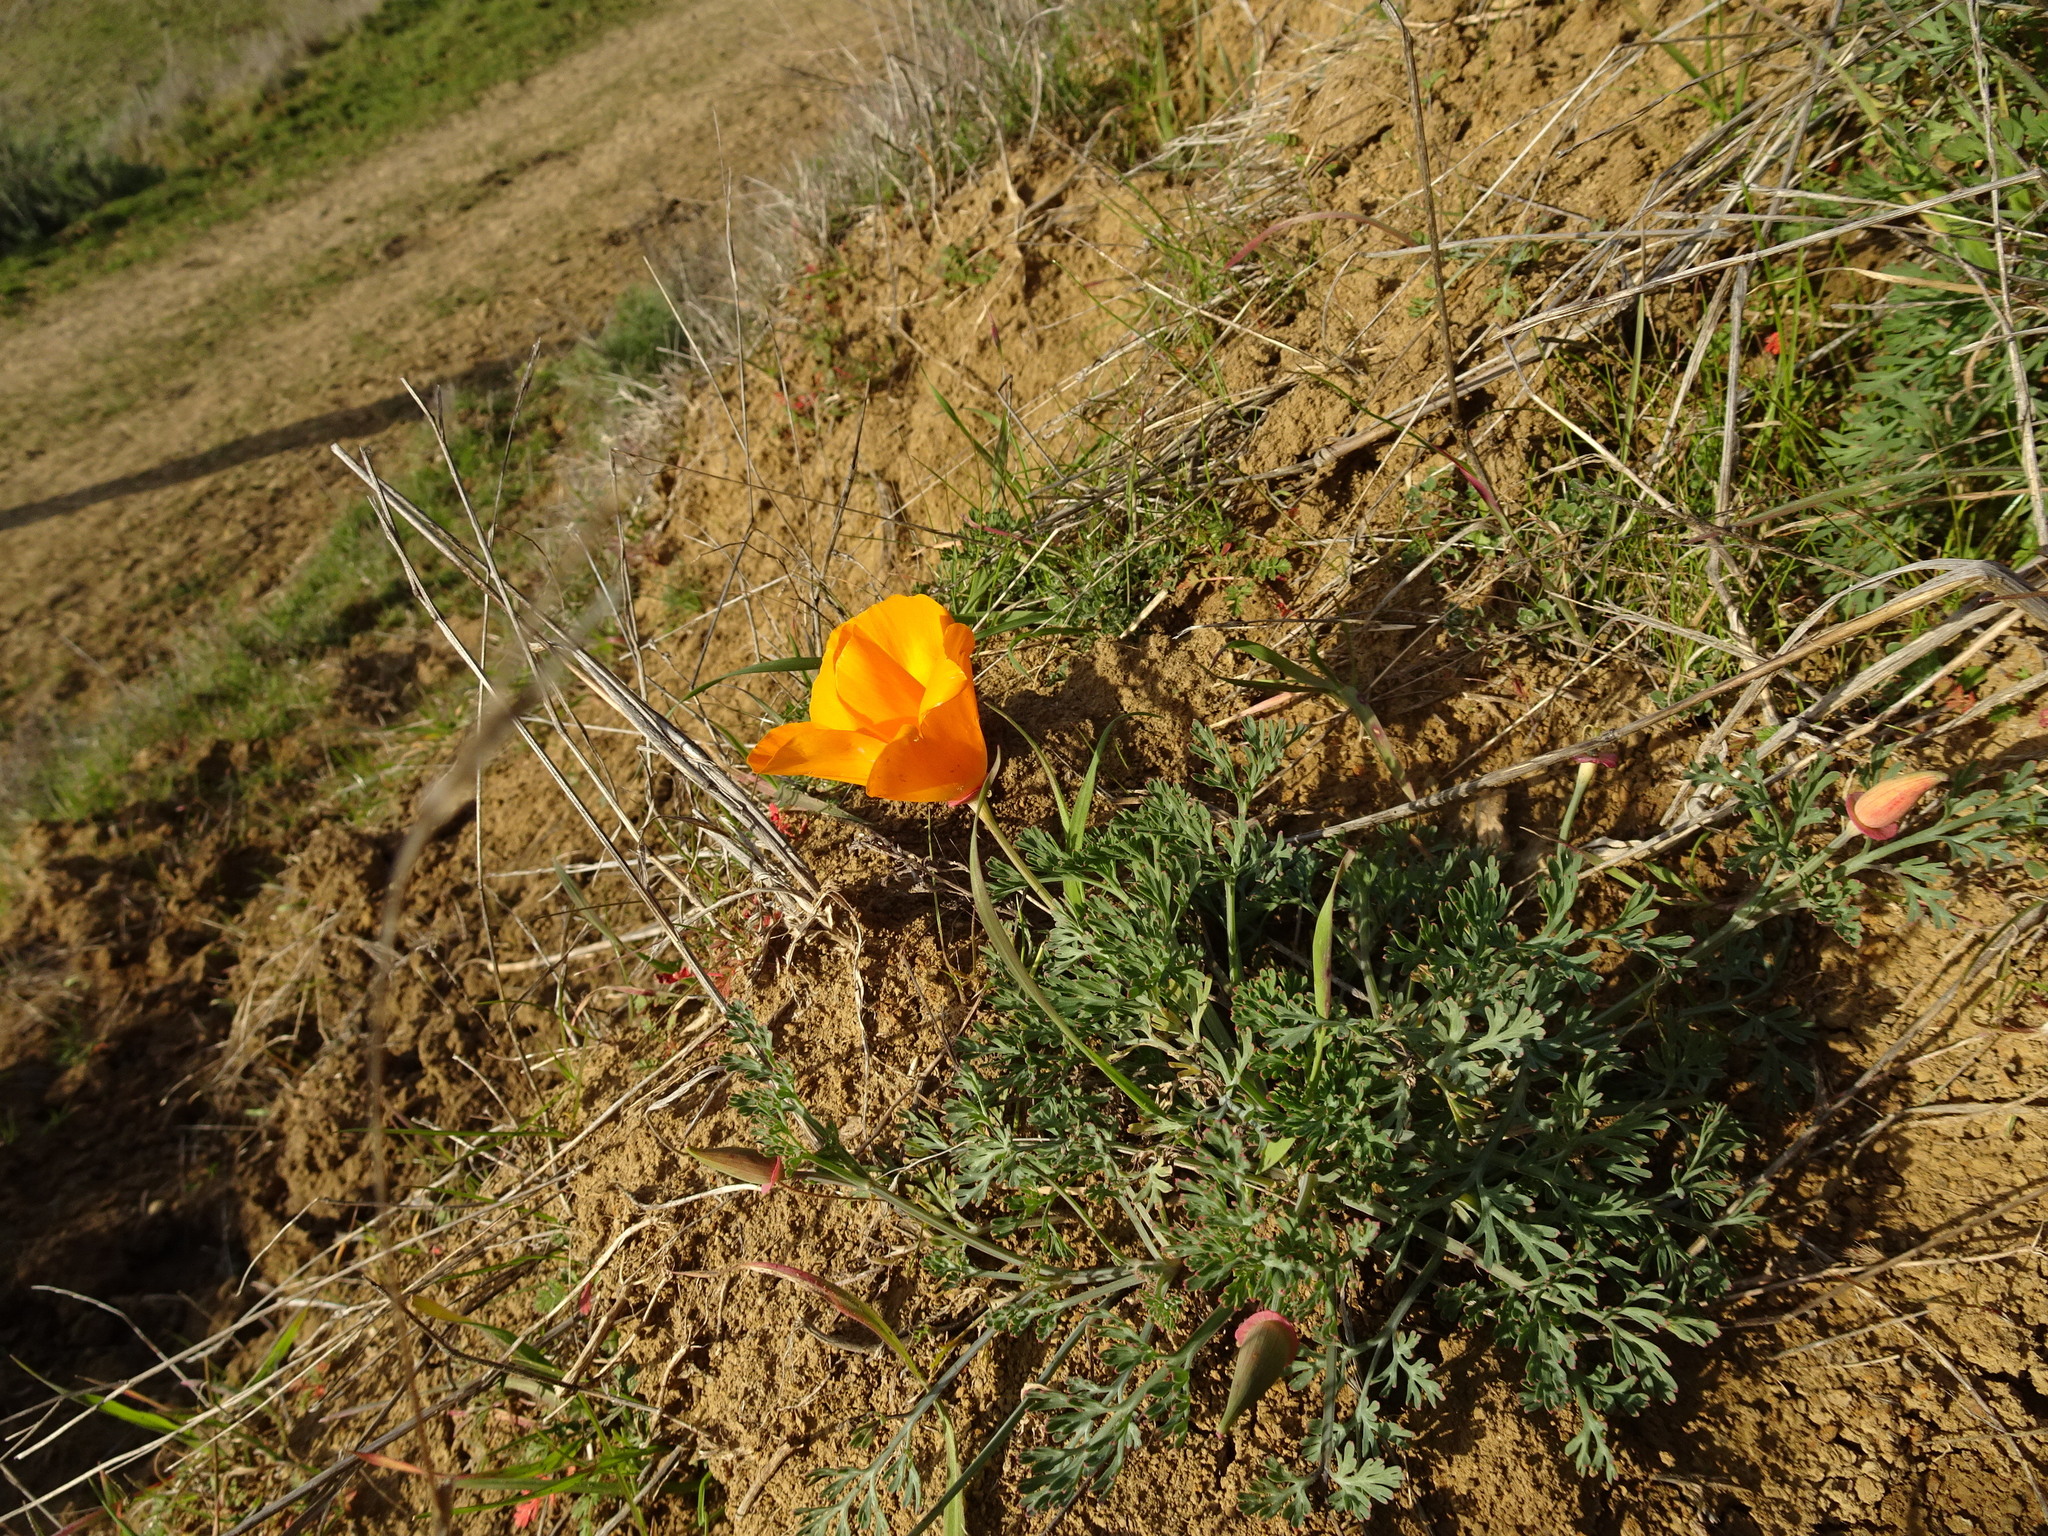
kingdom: Plantae
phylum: Tracheophyta
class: Magnoliopsida
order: Ranunculales
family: Papaveraceae
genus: Eschscholzia
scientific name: Eschscholzia californica
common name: California poppy
